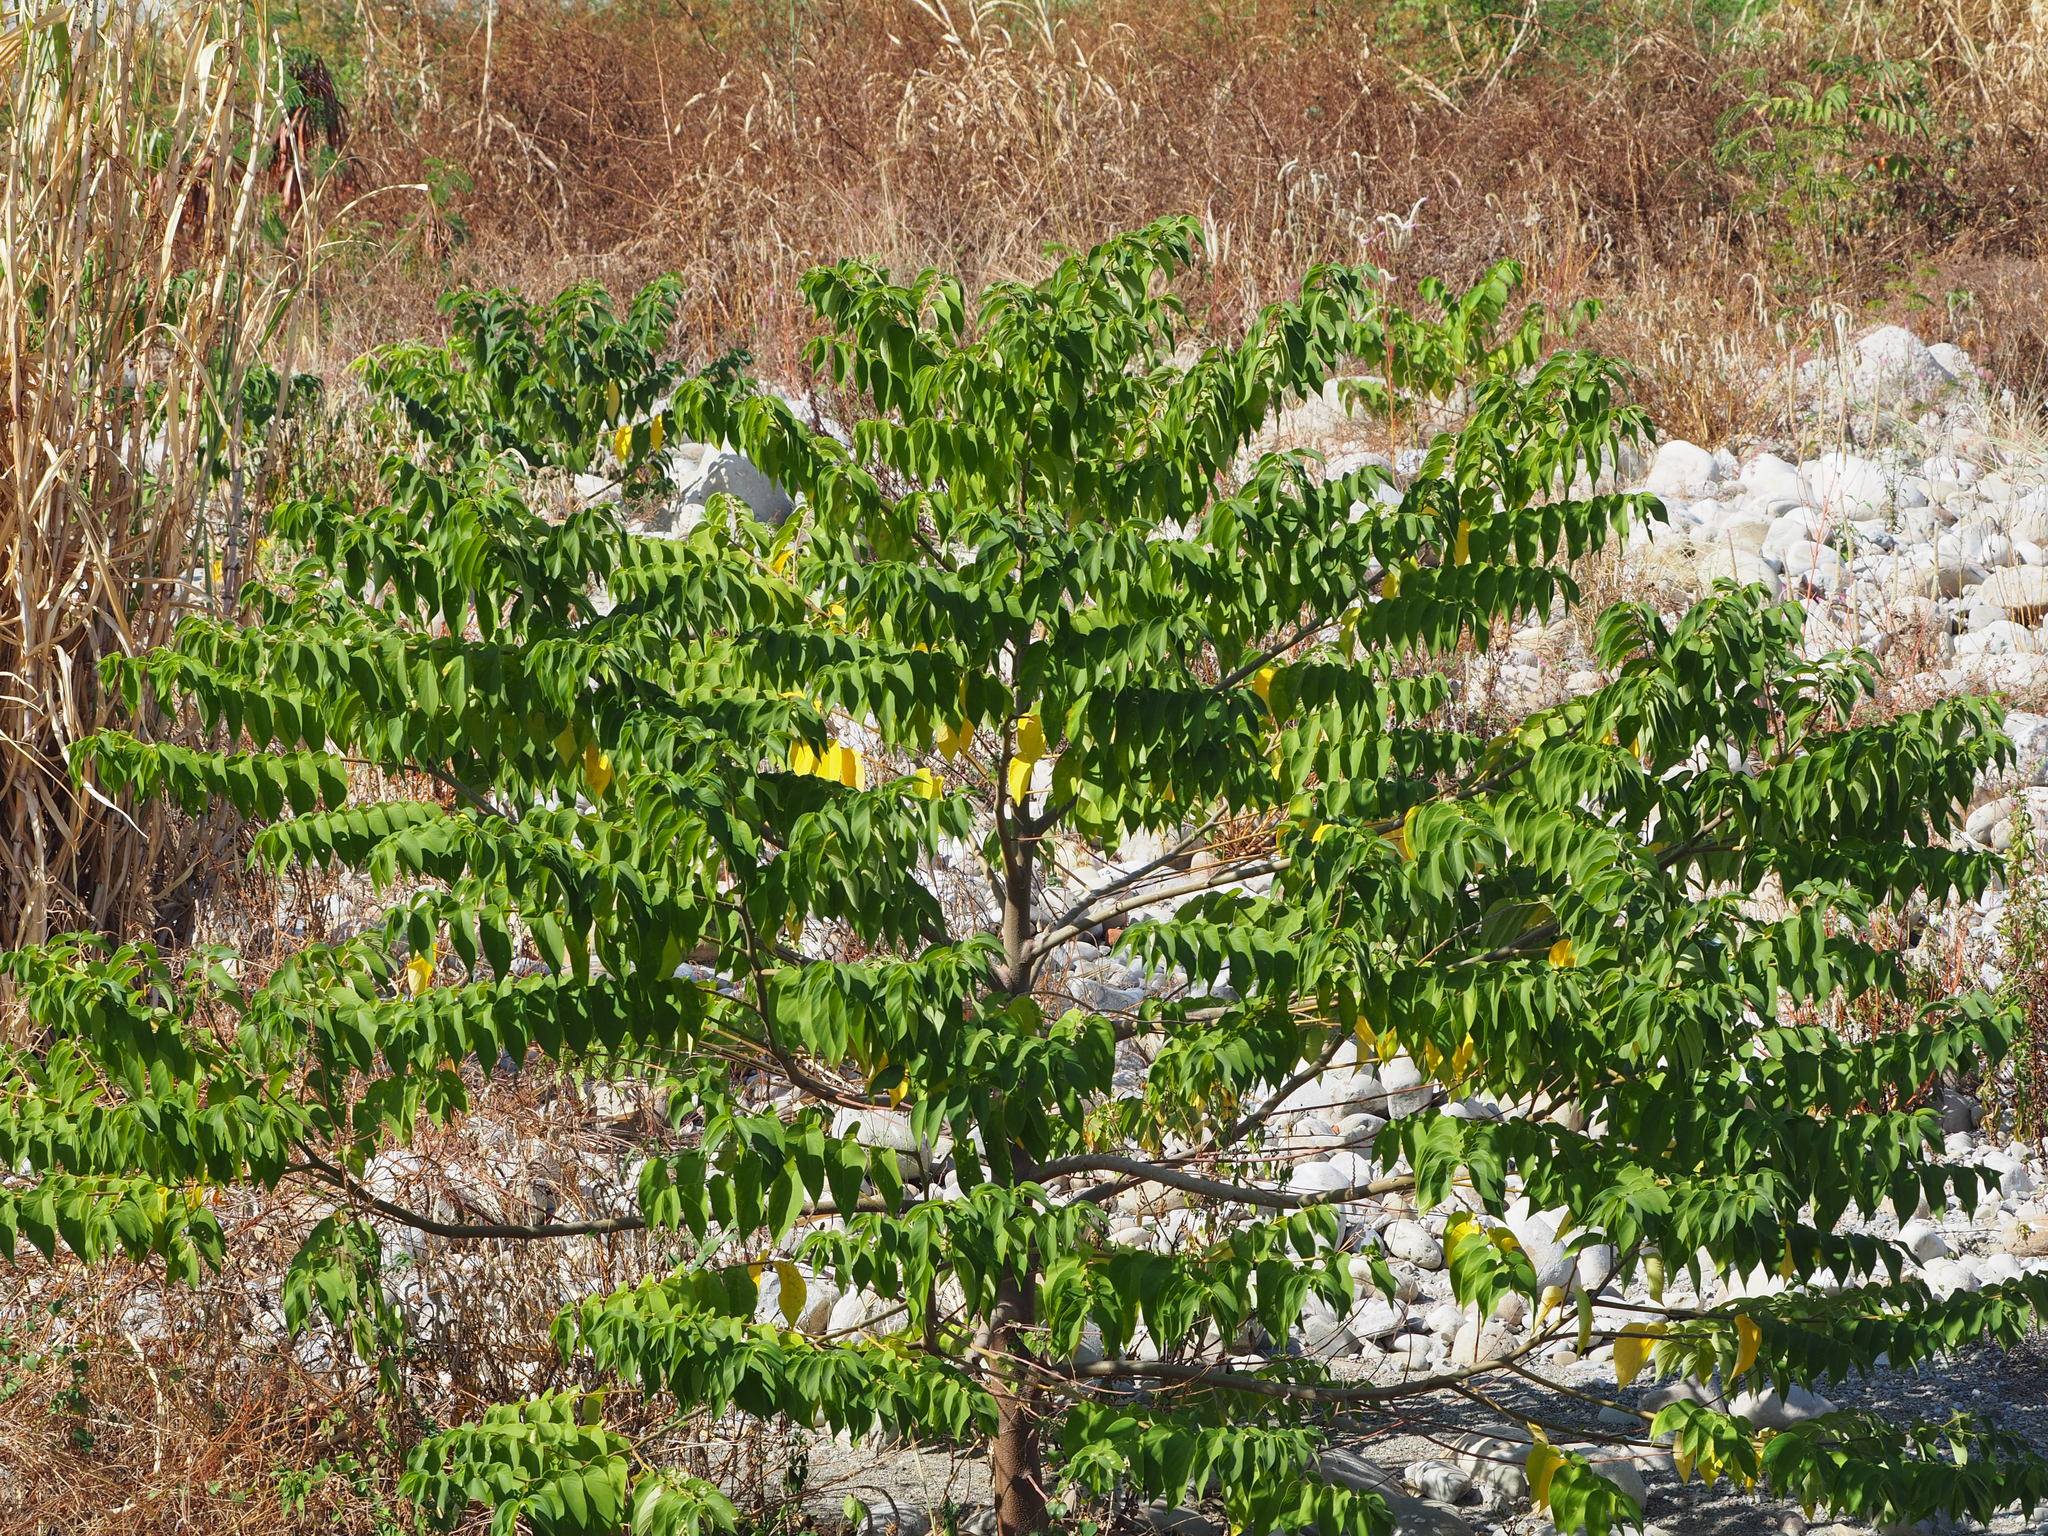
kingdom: Plantae
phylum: Tracheophyta
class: Magnoliopsida
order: Rosales
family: Cannabaceae
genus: Trema
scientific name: Trema orientale
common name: Indian charcoal tree
